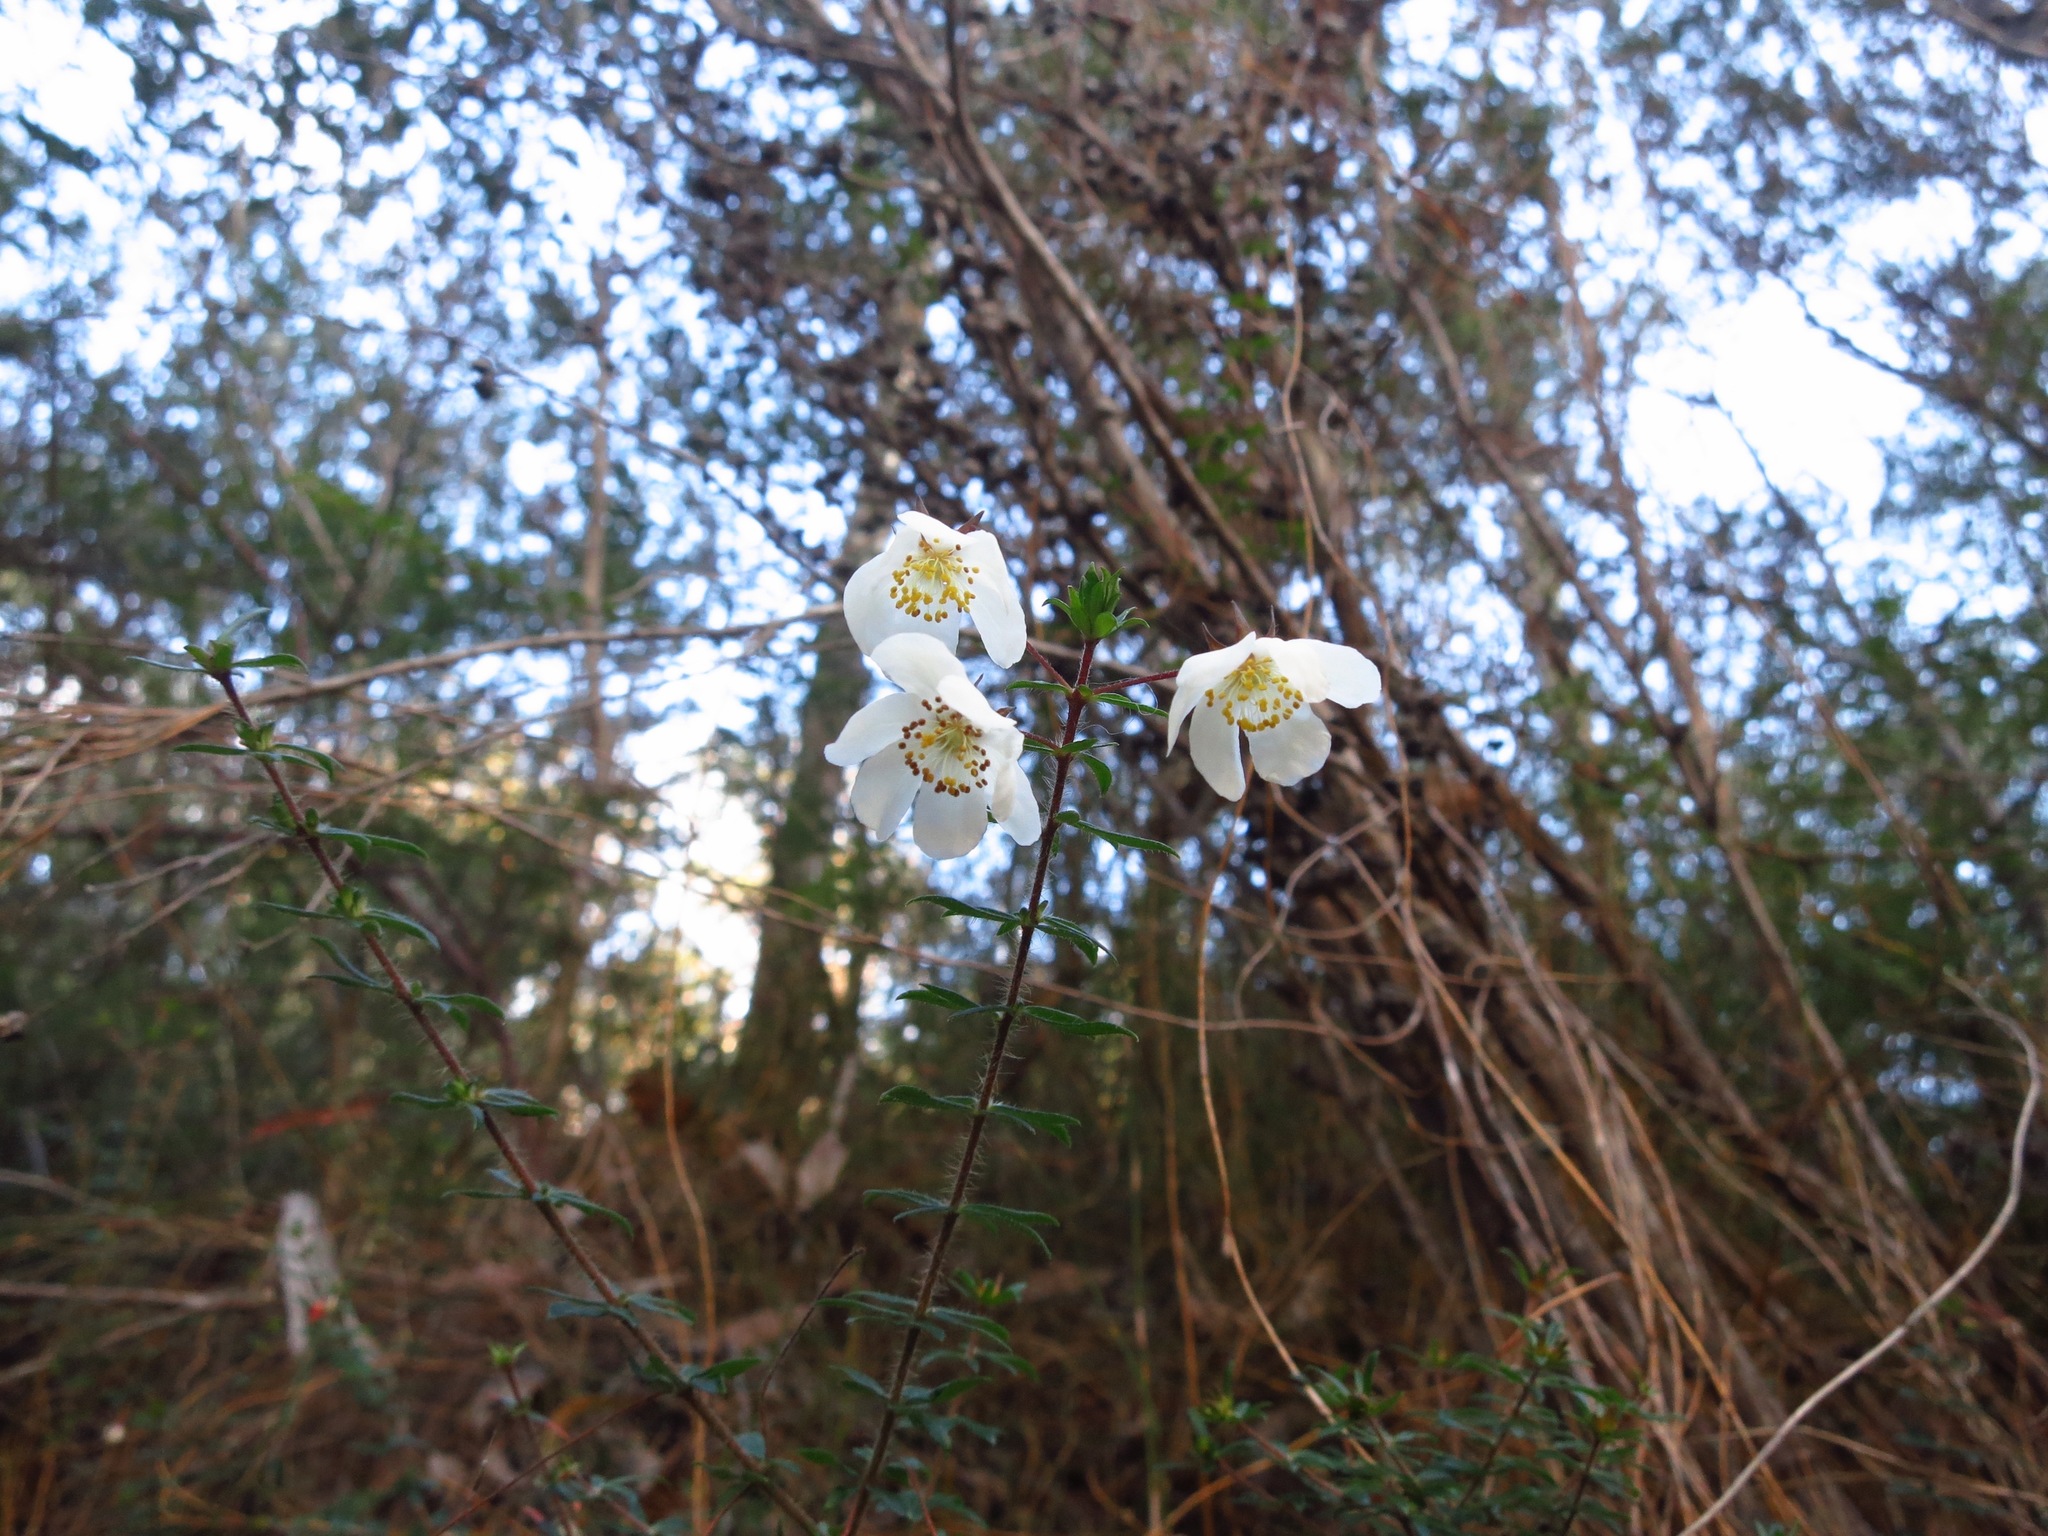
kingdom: Plantae
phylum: Tracheophyta
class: Magnoliopsida
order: Oxalidales
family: Cunoniaceae
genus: Bauera
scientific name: Bauera rubioides
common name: River-rose
